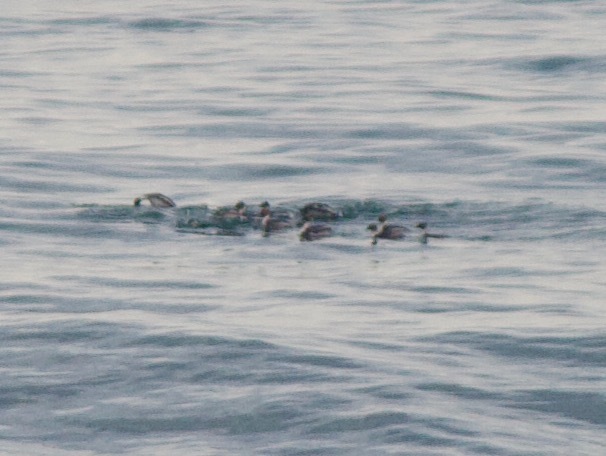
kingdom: Animalia
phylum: Chordata
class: Aves
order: Podicipediformes
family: Podicipedidae
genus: Podiceps
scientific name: Podiceps occipitalis
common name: Silvery grebe
